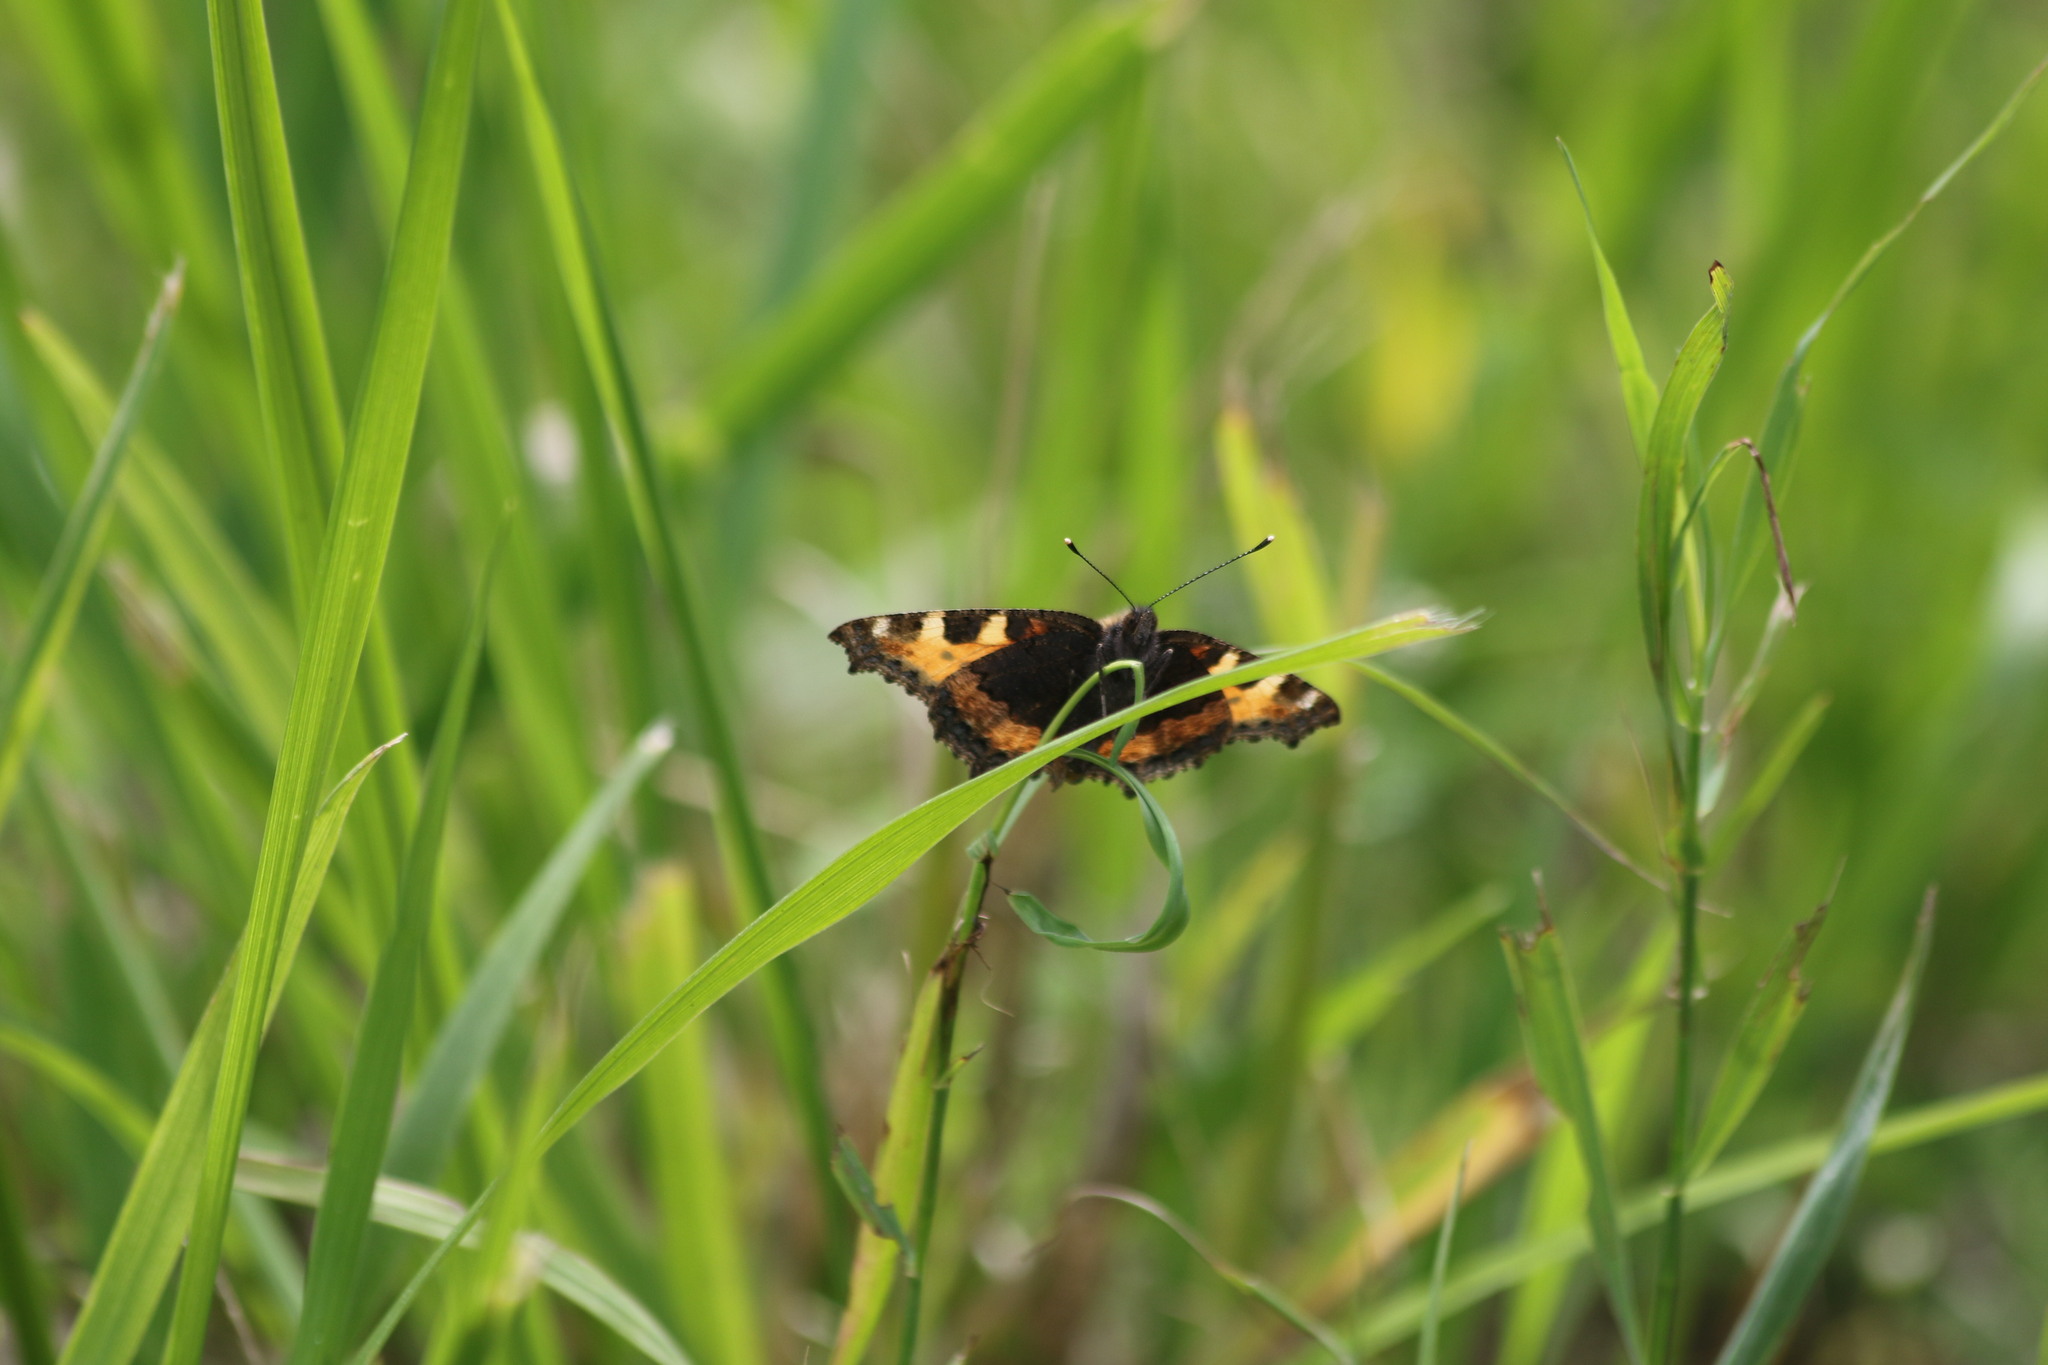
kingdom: Animalia
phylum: Arthropoda
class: Insecta
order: Lepidoptera
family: Nymphalidae
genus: Aglais
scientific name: Aglais urticae
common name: Small tortoiseshell
